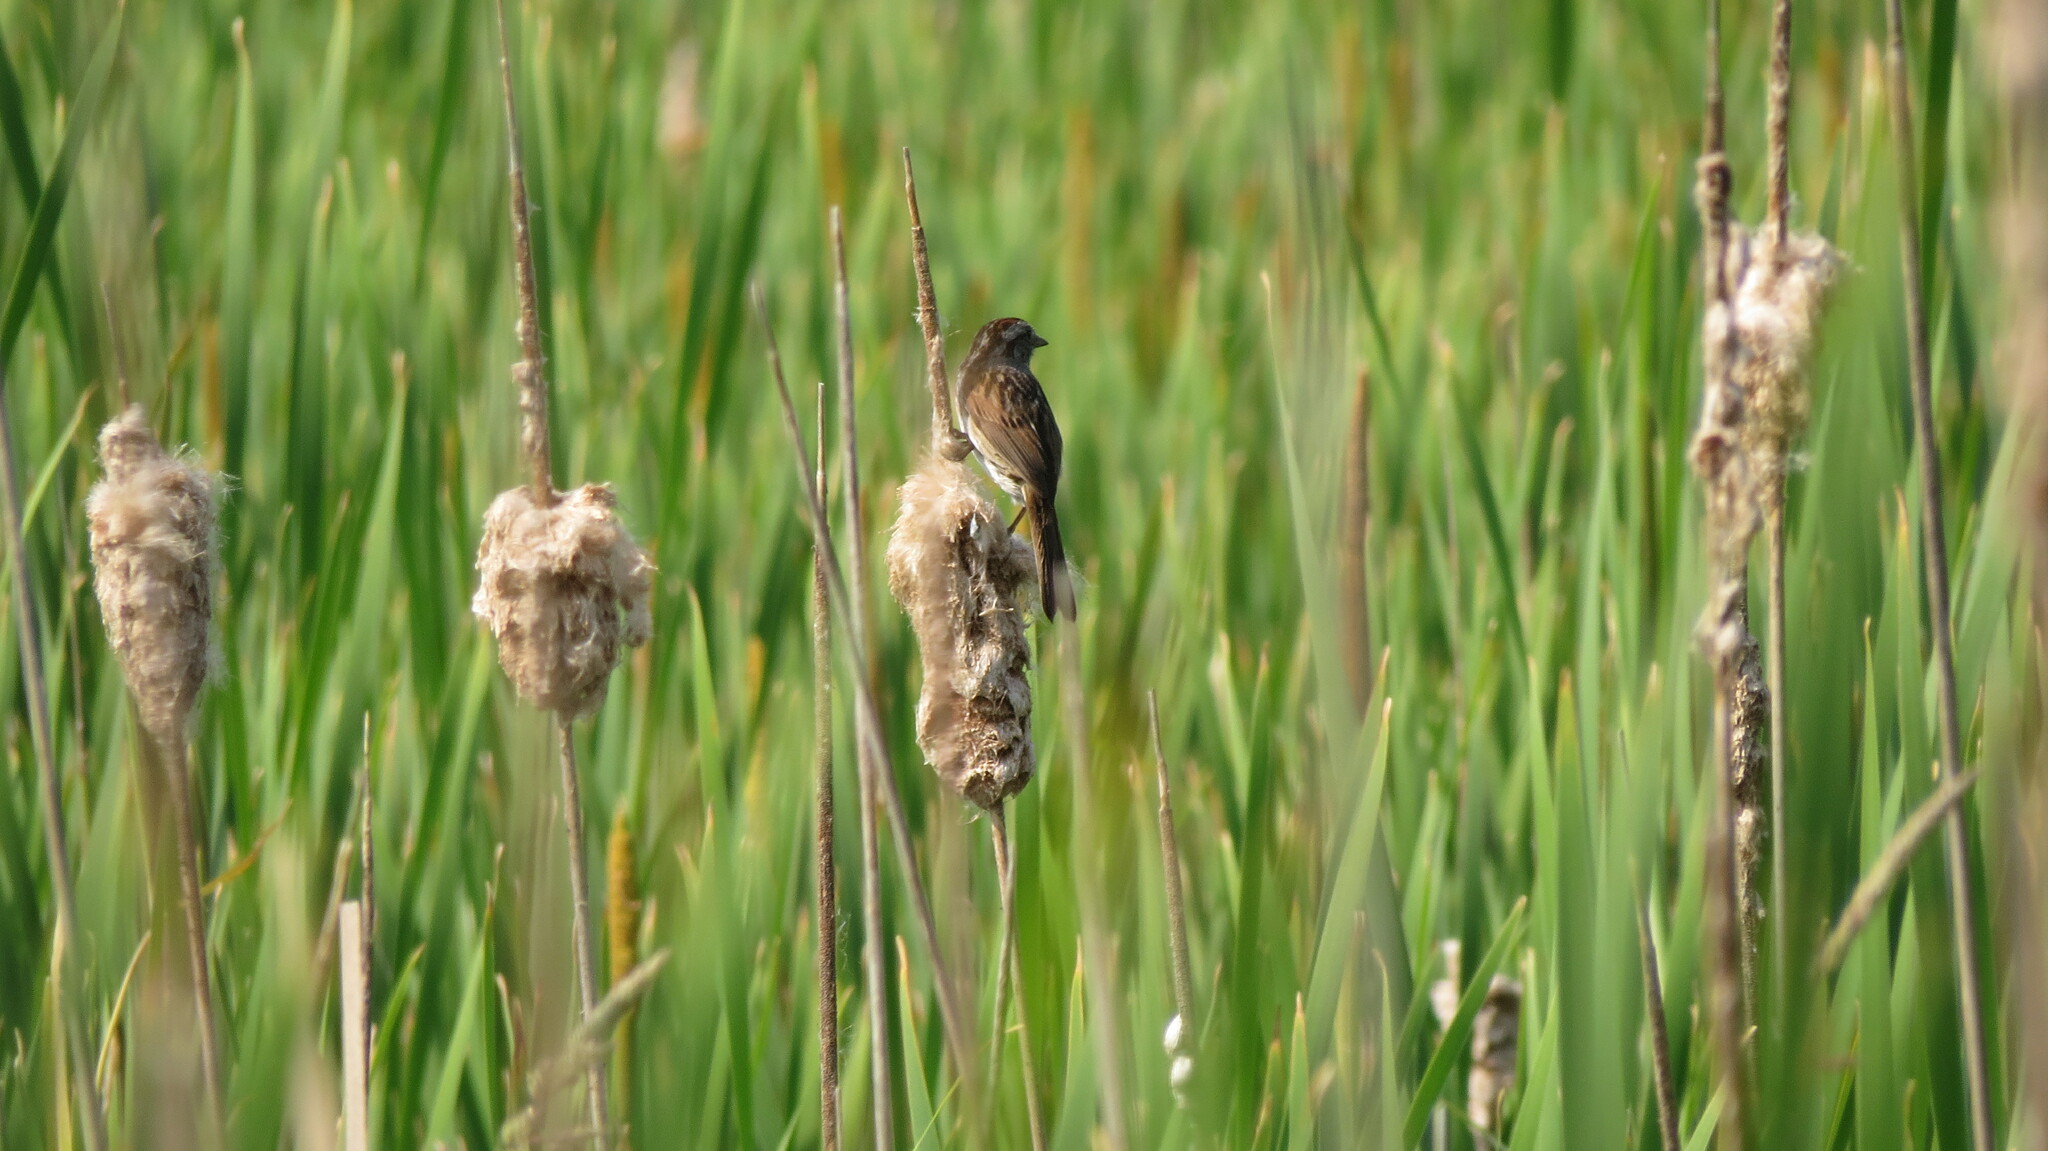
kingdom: Animalia
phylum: Chordata
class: Aves
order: Passeriformes
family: Passerellidae
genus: Melospiza
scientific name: Melospiza melodia
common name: Song sparrow
